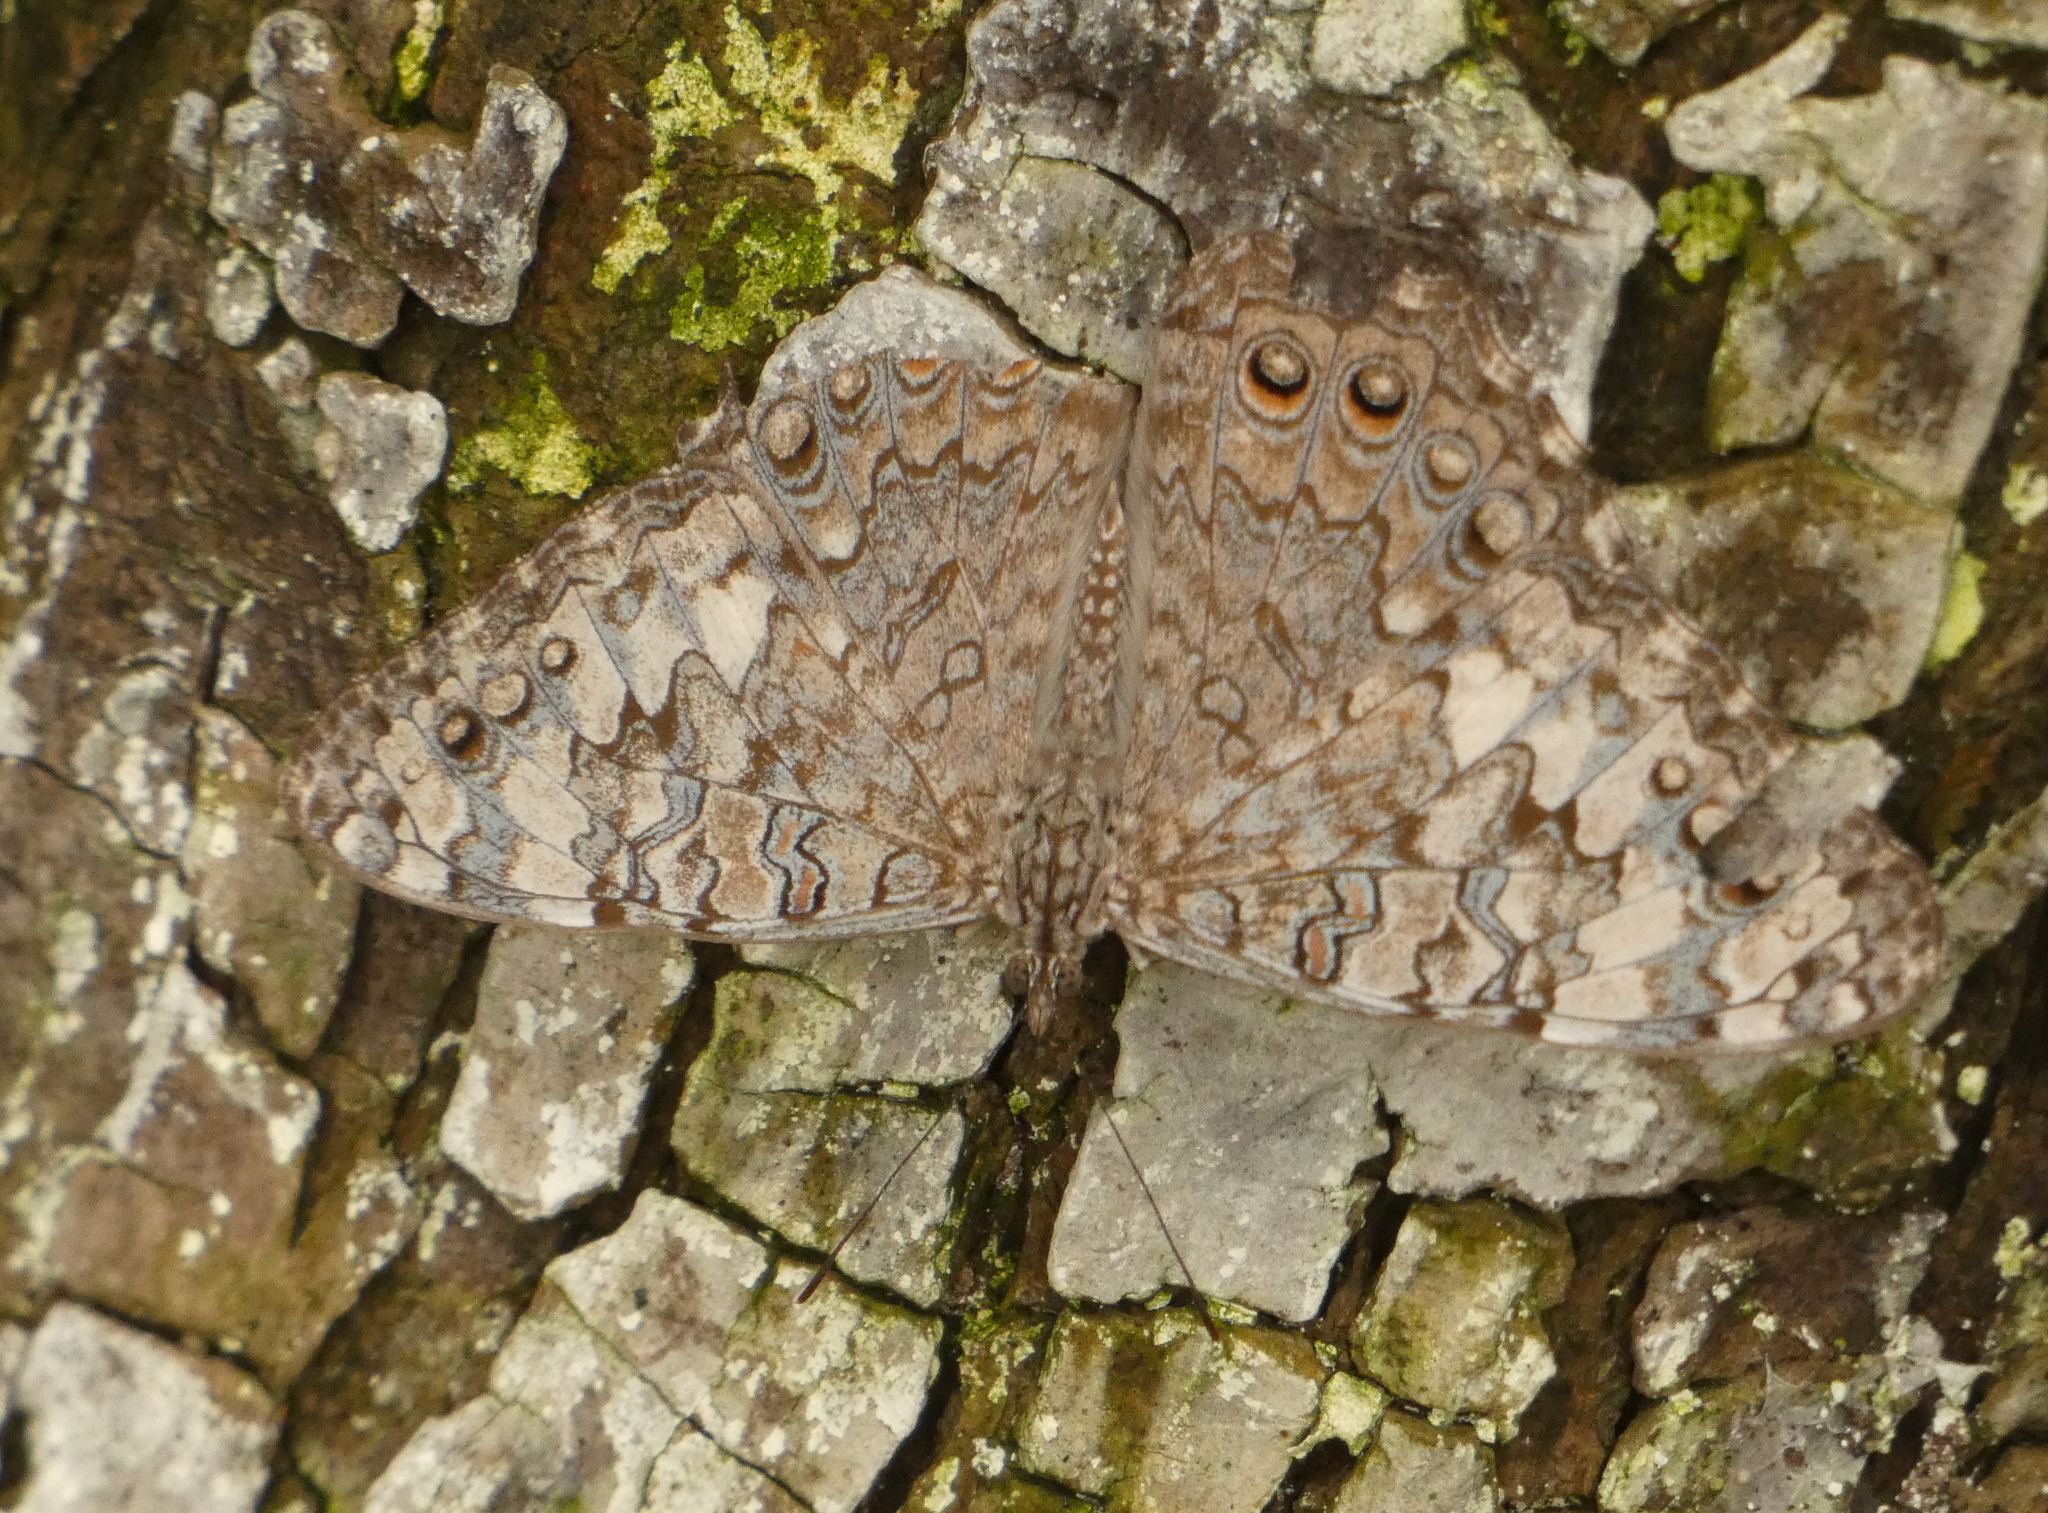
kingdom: Animalia
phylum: Arthropoda
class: Insecta
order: Lepidoptera
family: Nymphalidae
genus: Hamadryas
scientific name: Hamadryas februa
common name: Gray cracker
